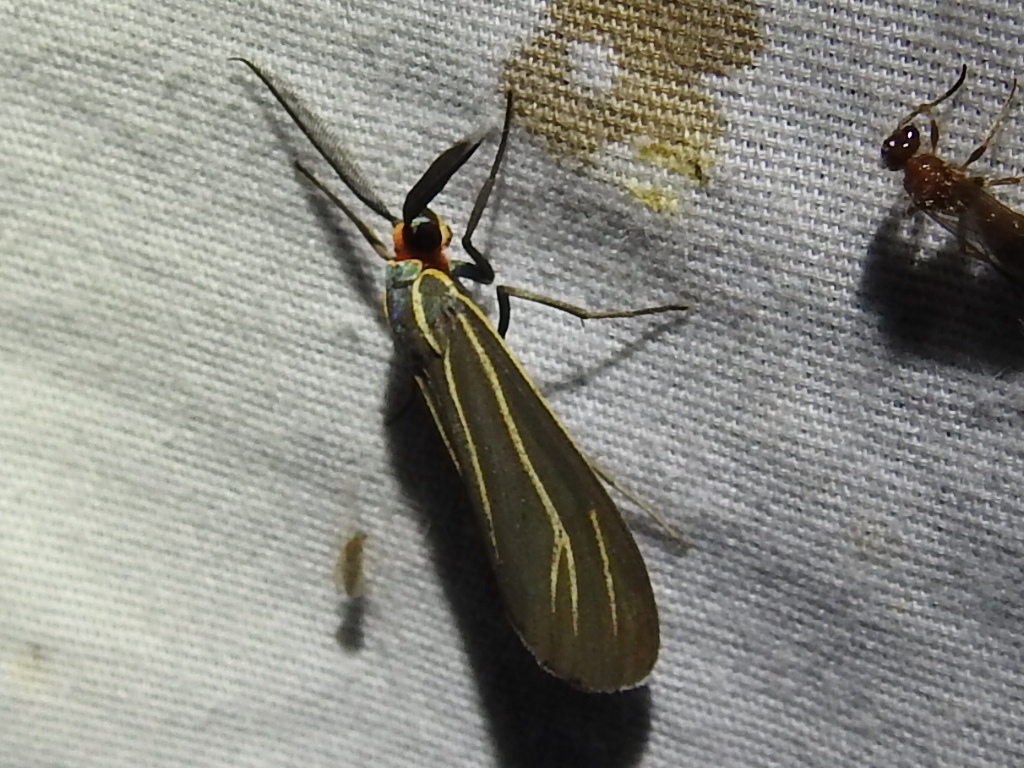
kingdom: Animalia
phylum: Arthropoda
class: Insecta
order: Lepidoptera
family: Erebidae
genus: Ctenucha
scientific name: Ctenucha venosa
